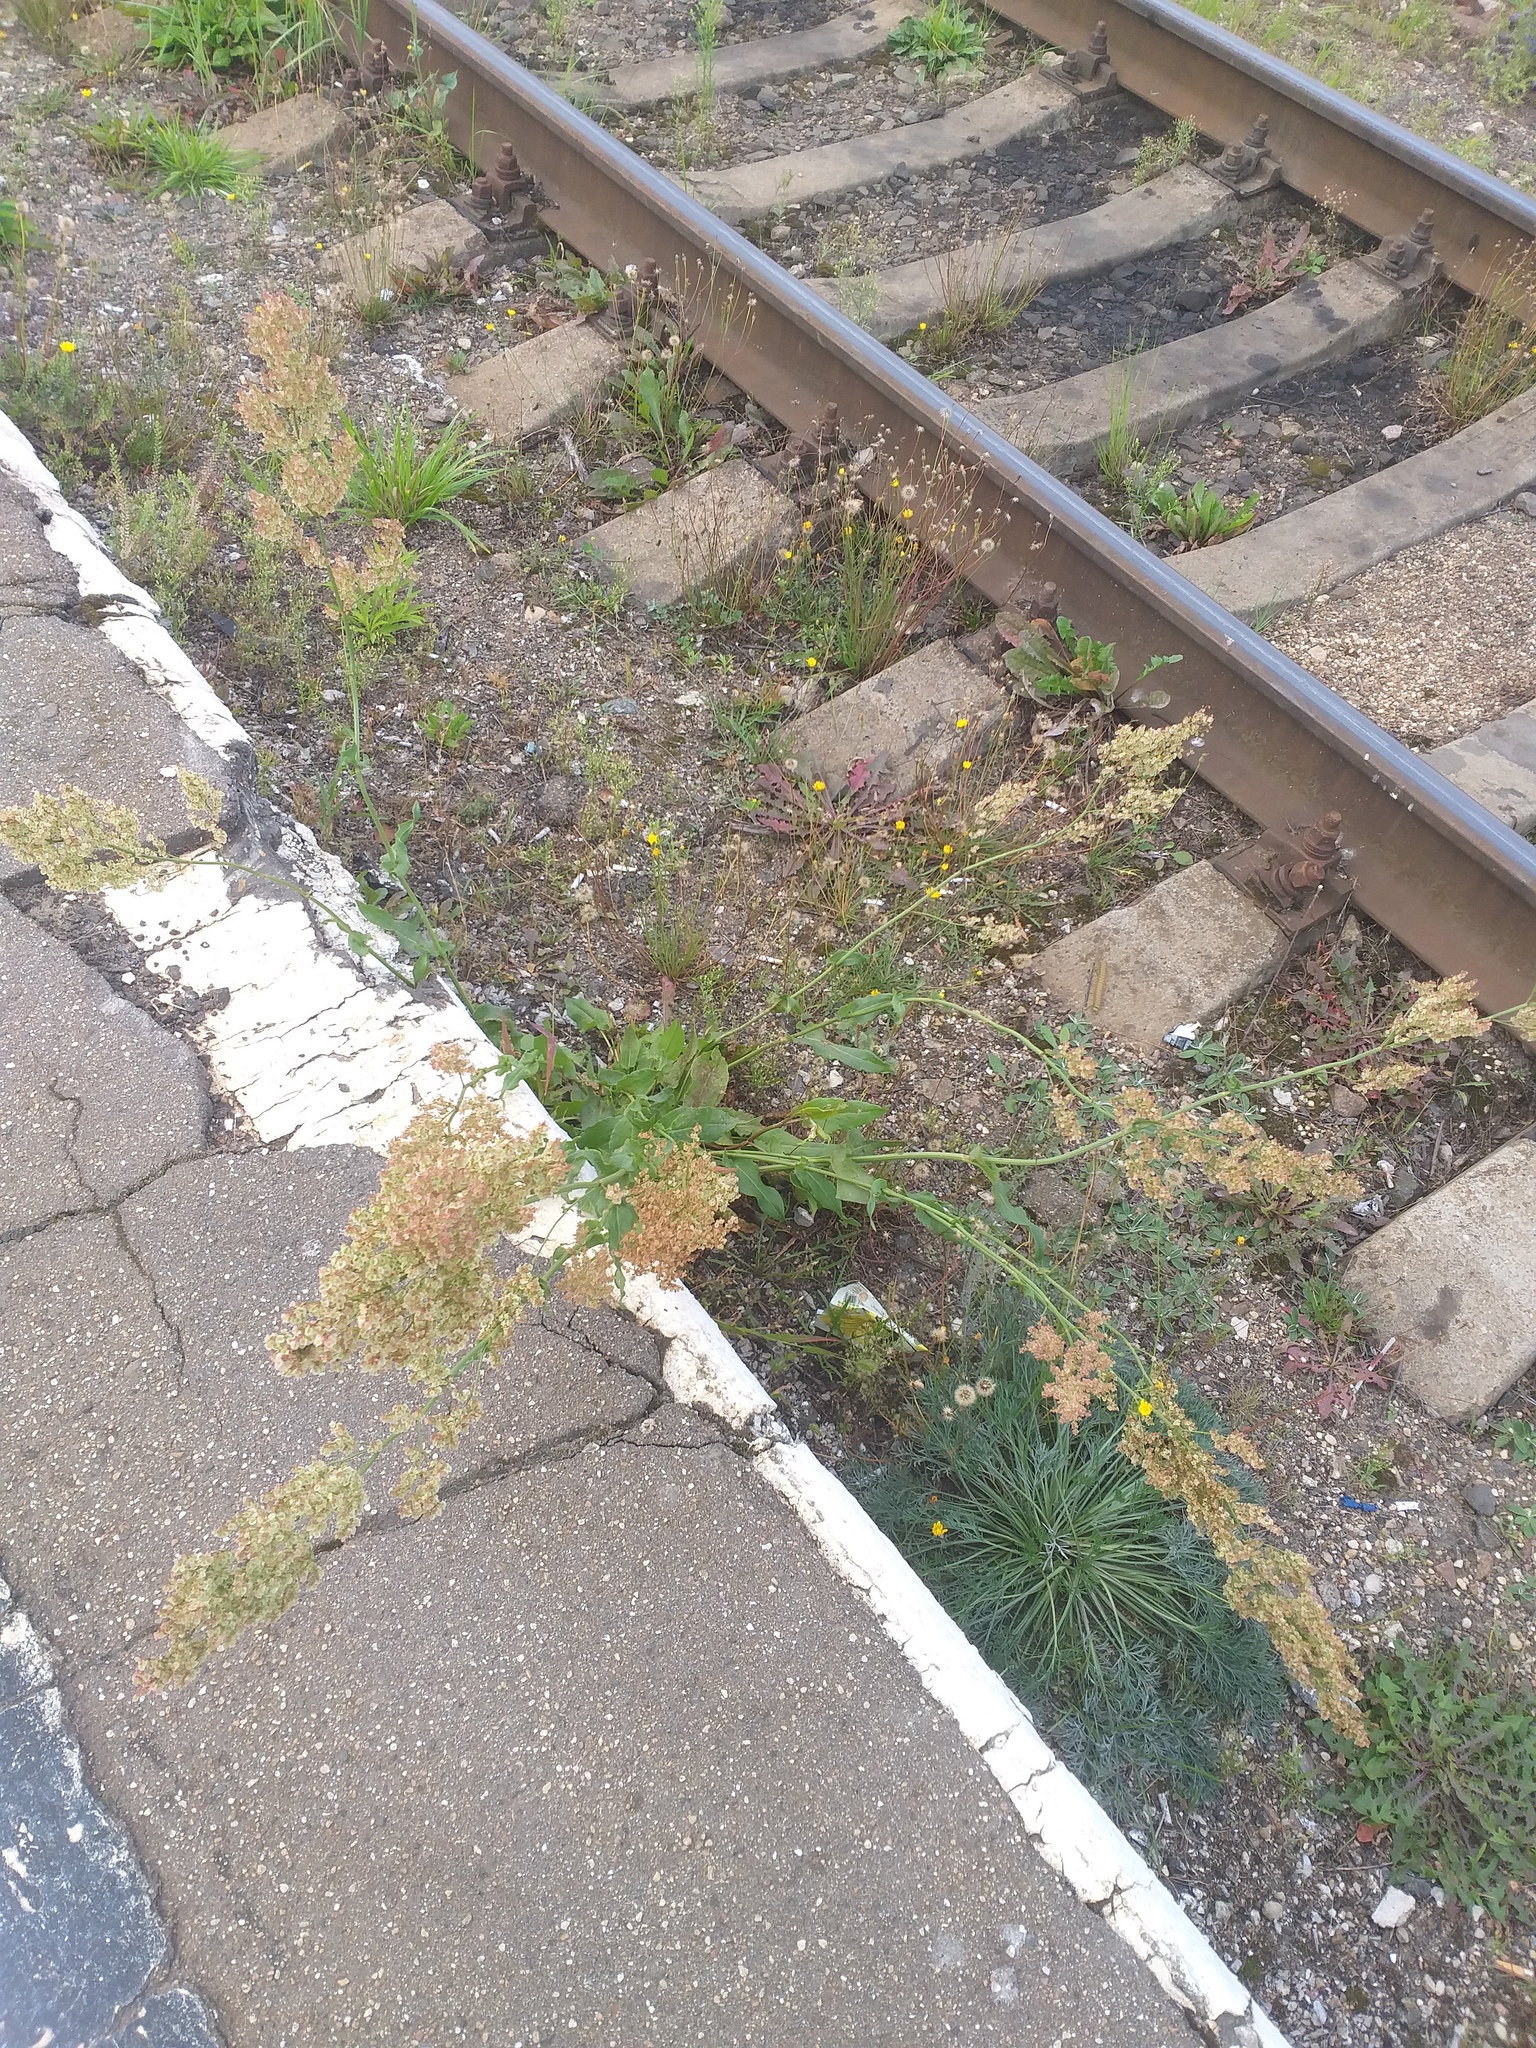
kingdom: Plantae
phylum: Tracheophyta
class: Magnoliopsida
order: Caryophyllales
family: Polygonaceae
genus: Rumex
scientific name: Rumex thyrsiflorus
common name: Garden sorrel
